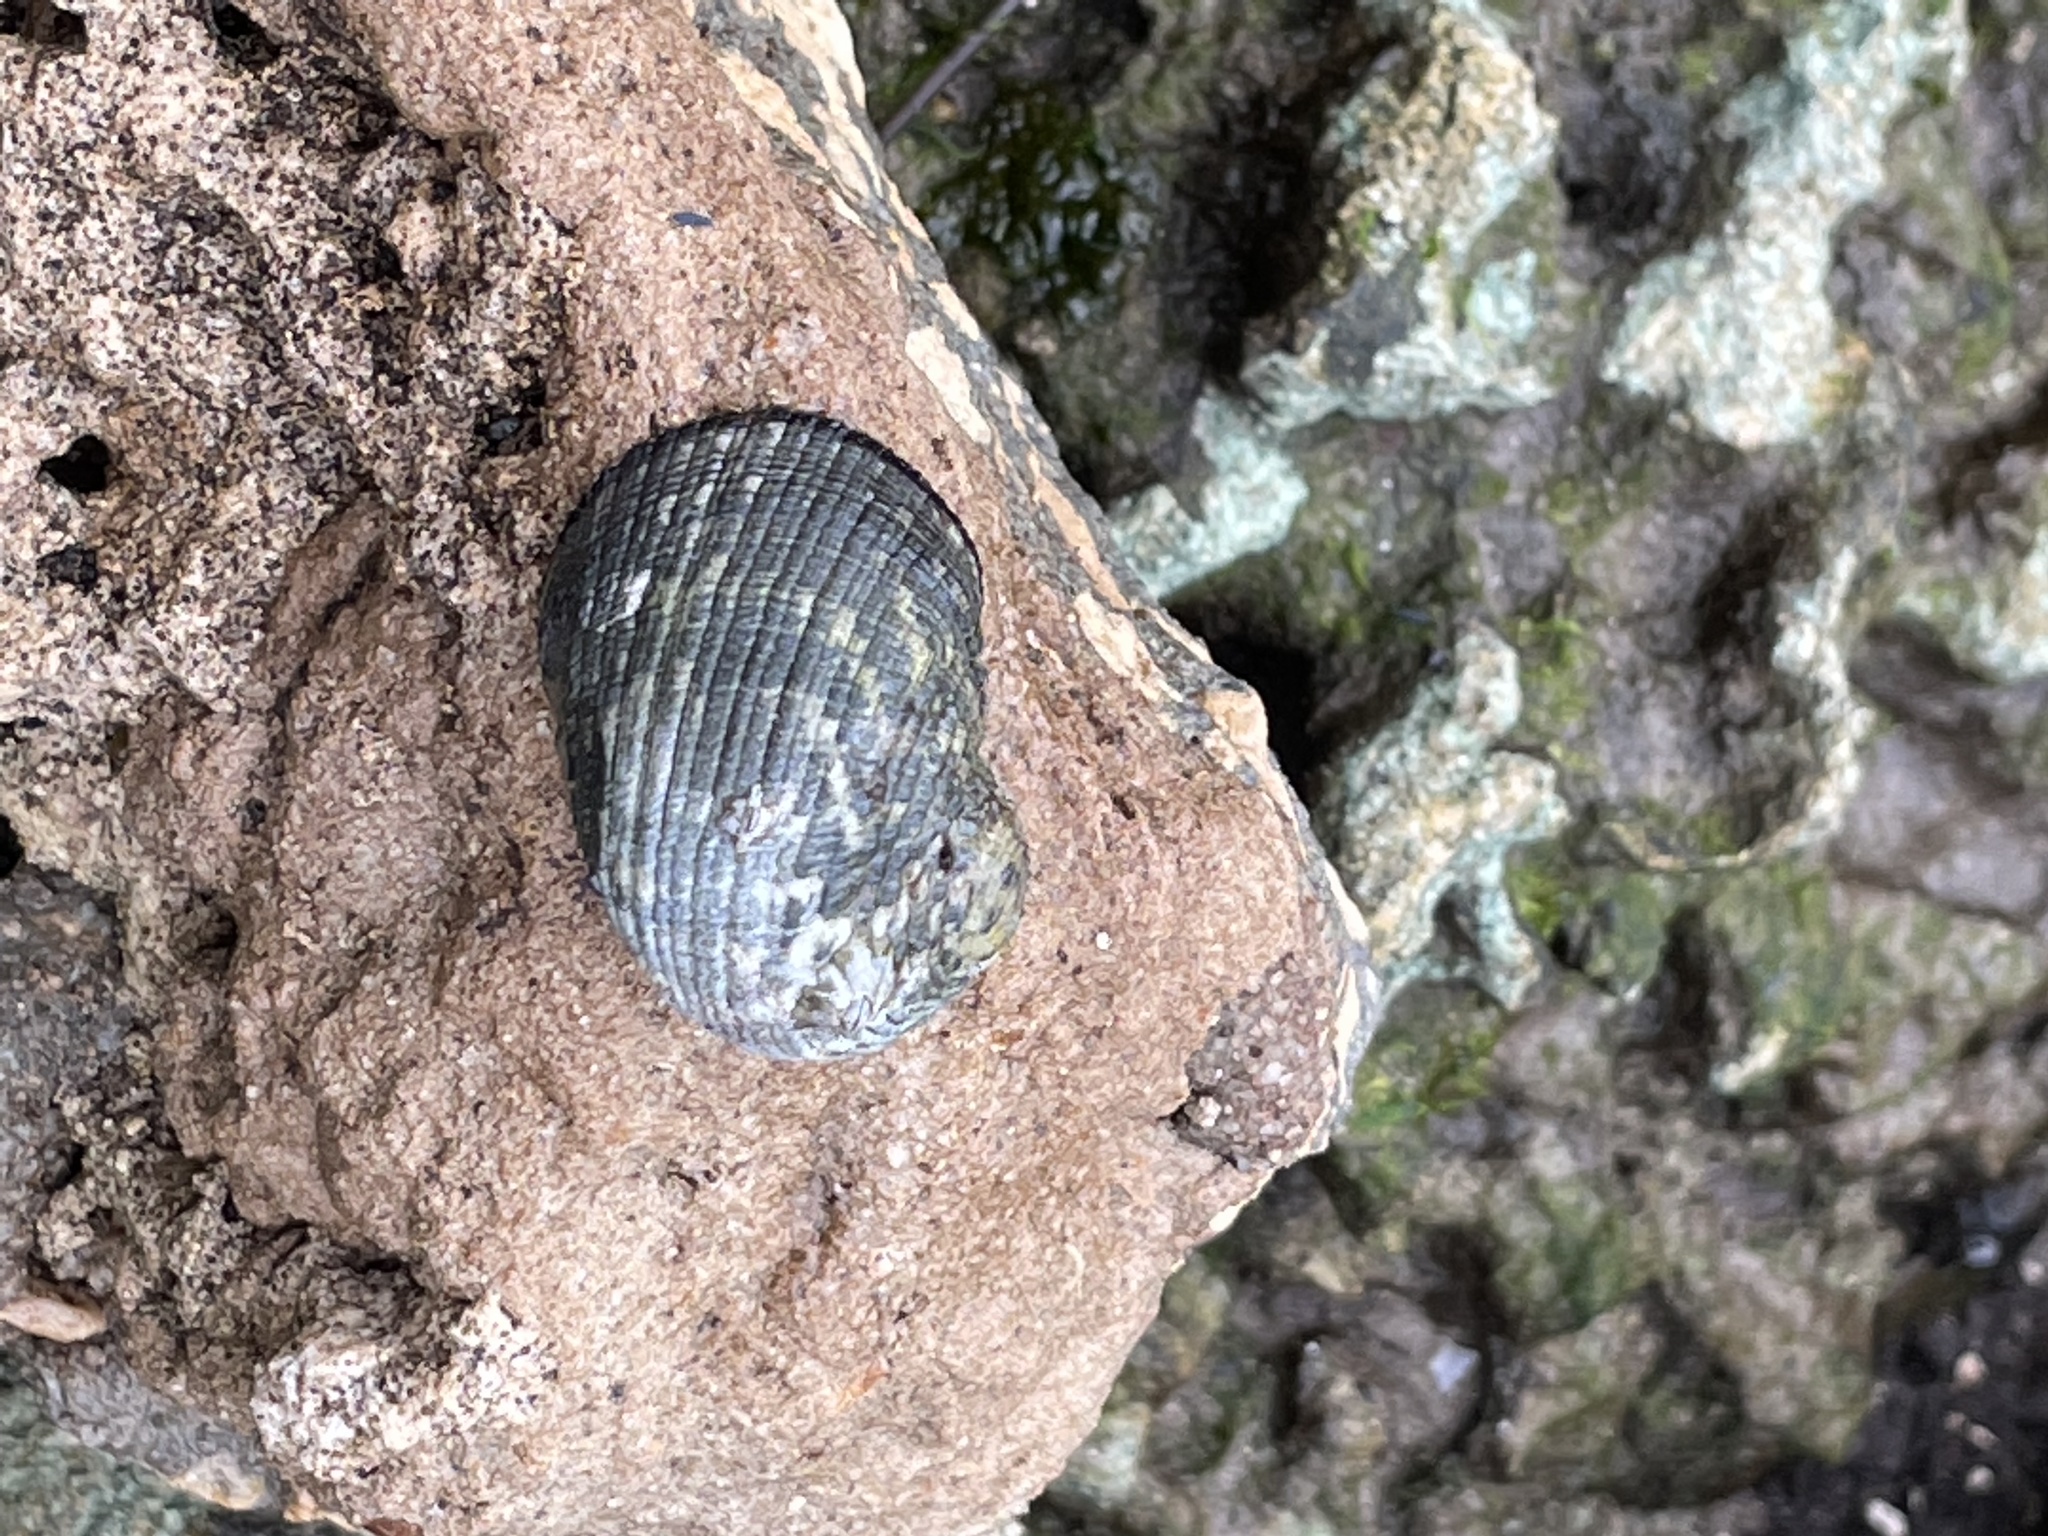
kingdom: Animalia
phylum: Mollusca
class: Gastropoda
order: Cycloneritida
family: Neritidae
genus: Nerita
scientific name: Nerita fulgurans
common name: Antillean nerite
